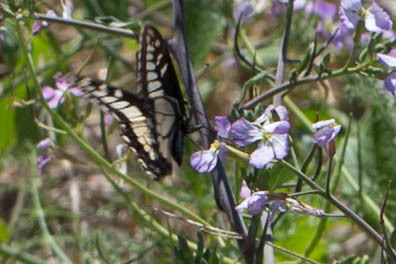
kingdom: Animalia
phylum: Arthropoda
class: Insecta
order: Lepidoptera
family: Papilionidae
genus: Papilio
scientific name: Papilio zelicaon
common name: Anise swallowtail
